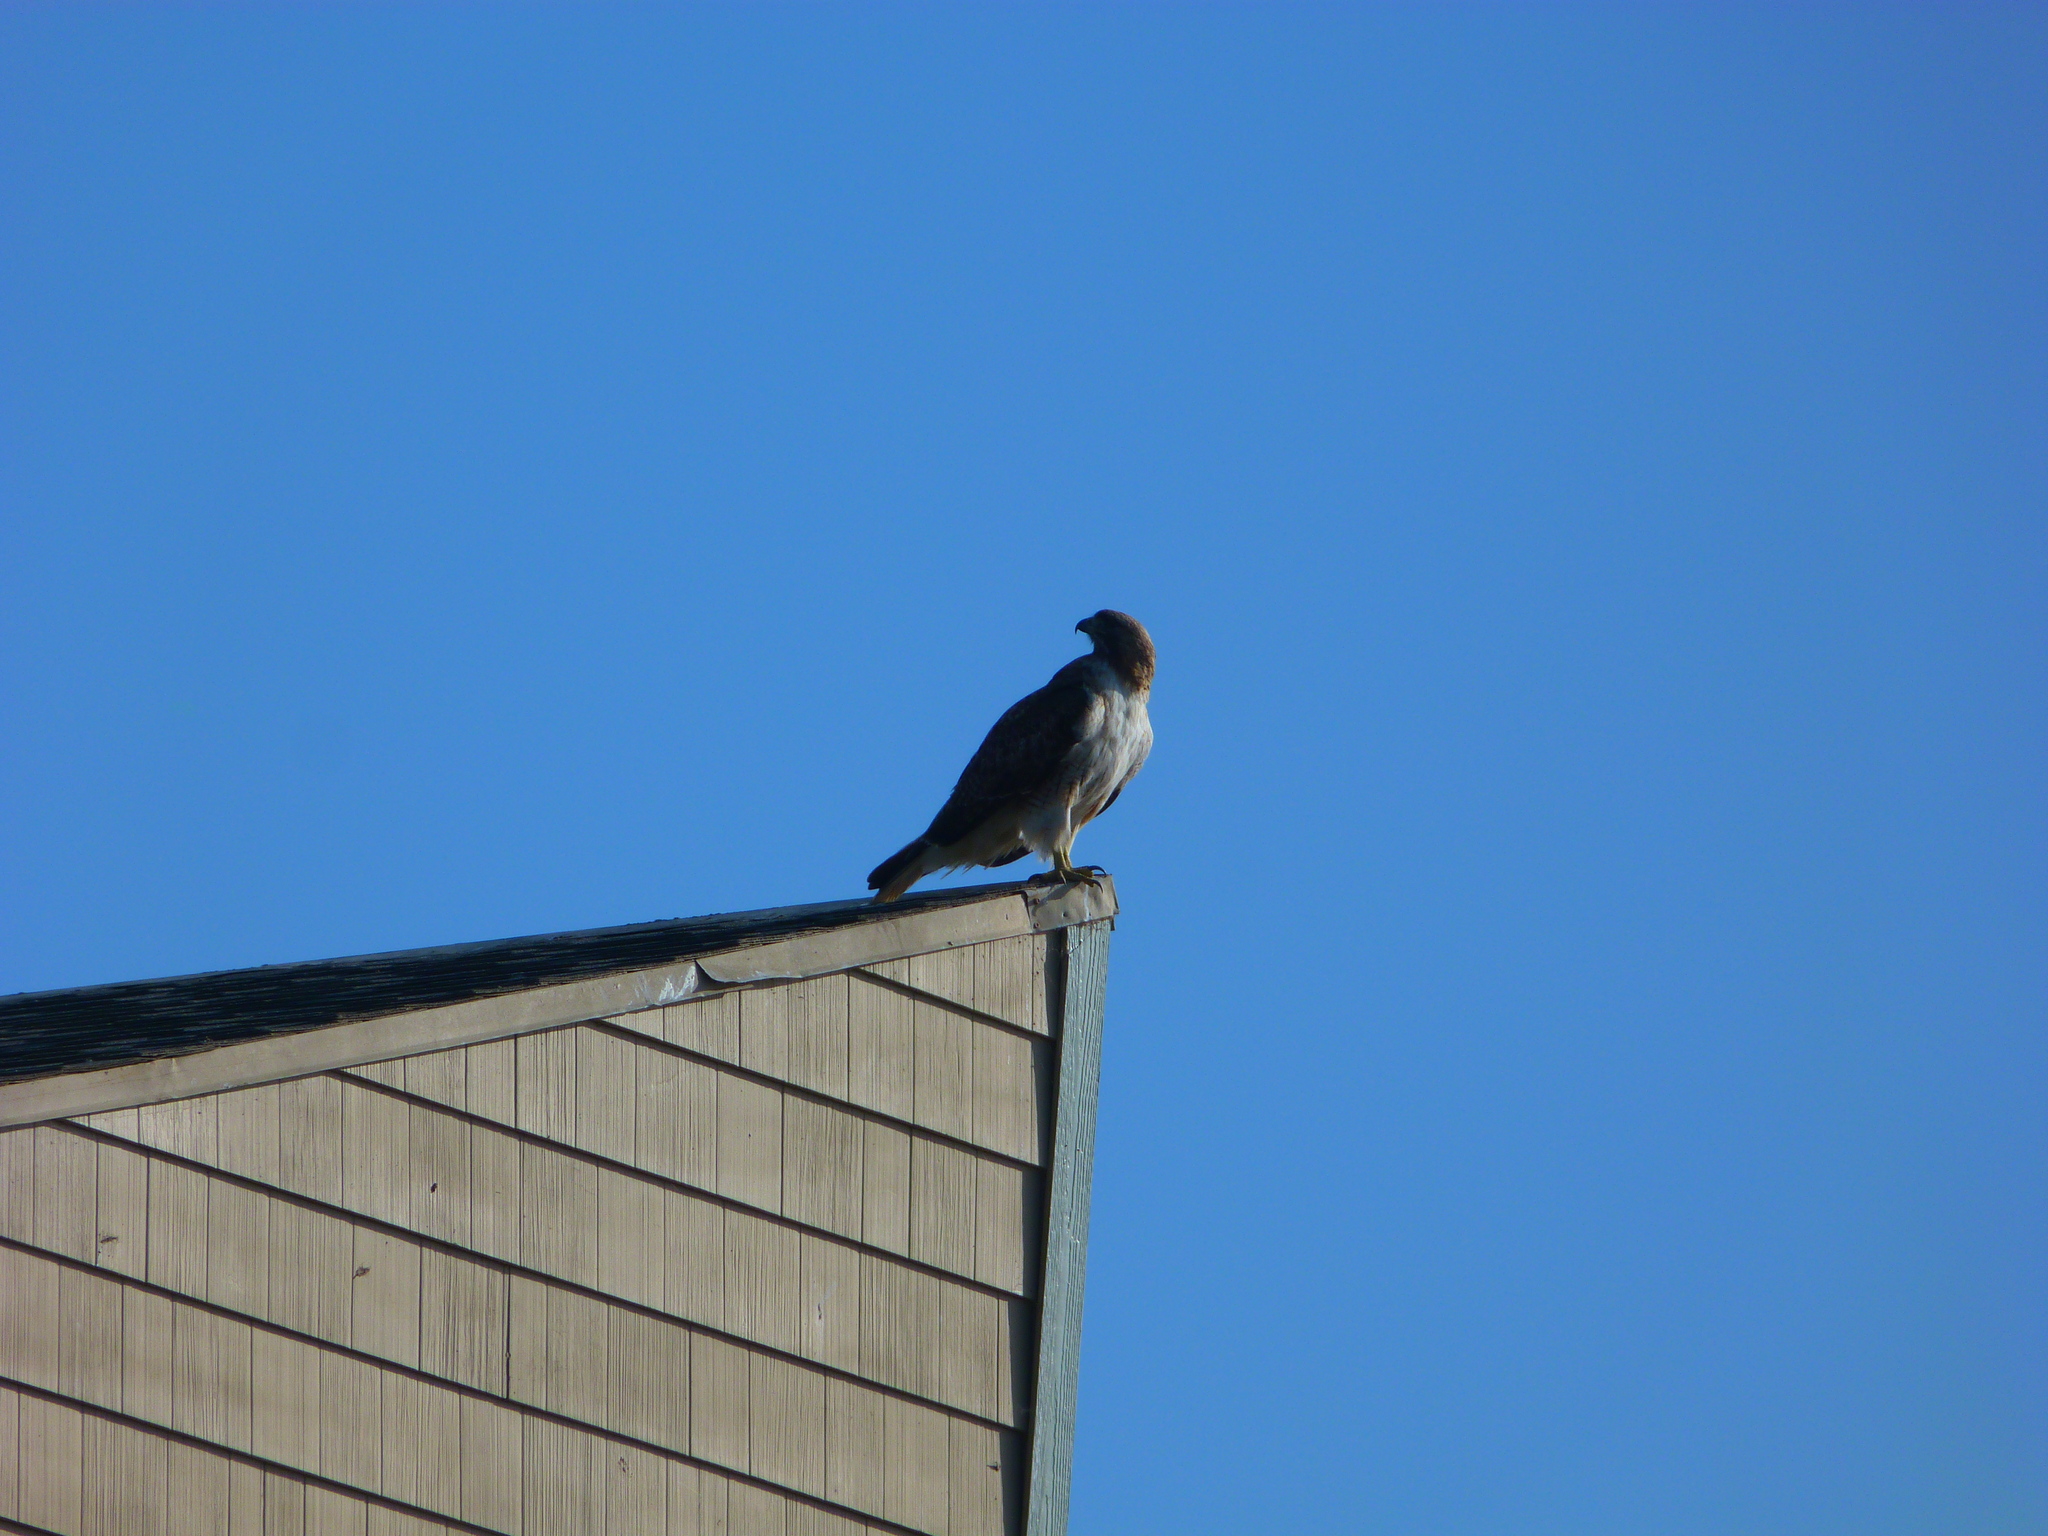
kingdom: Animalia
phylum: Chordata
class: Aves
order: Accipitriformes
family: Accipitridae
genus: Buteo
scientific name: Buteo jamaicensis
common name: Red-tailed hawk
